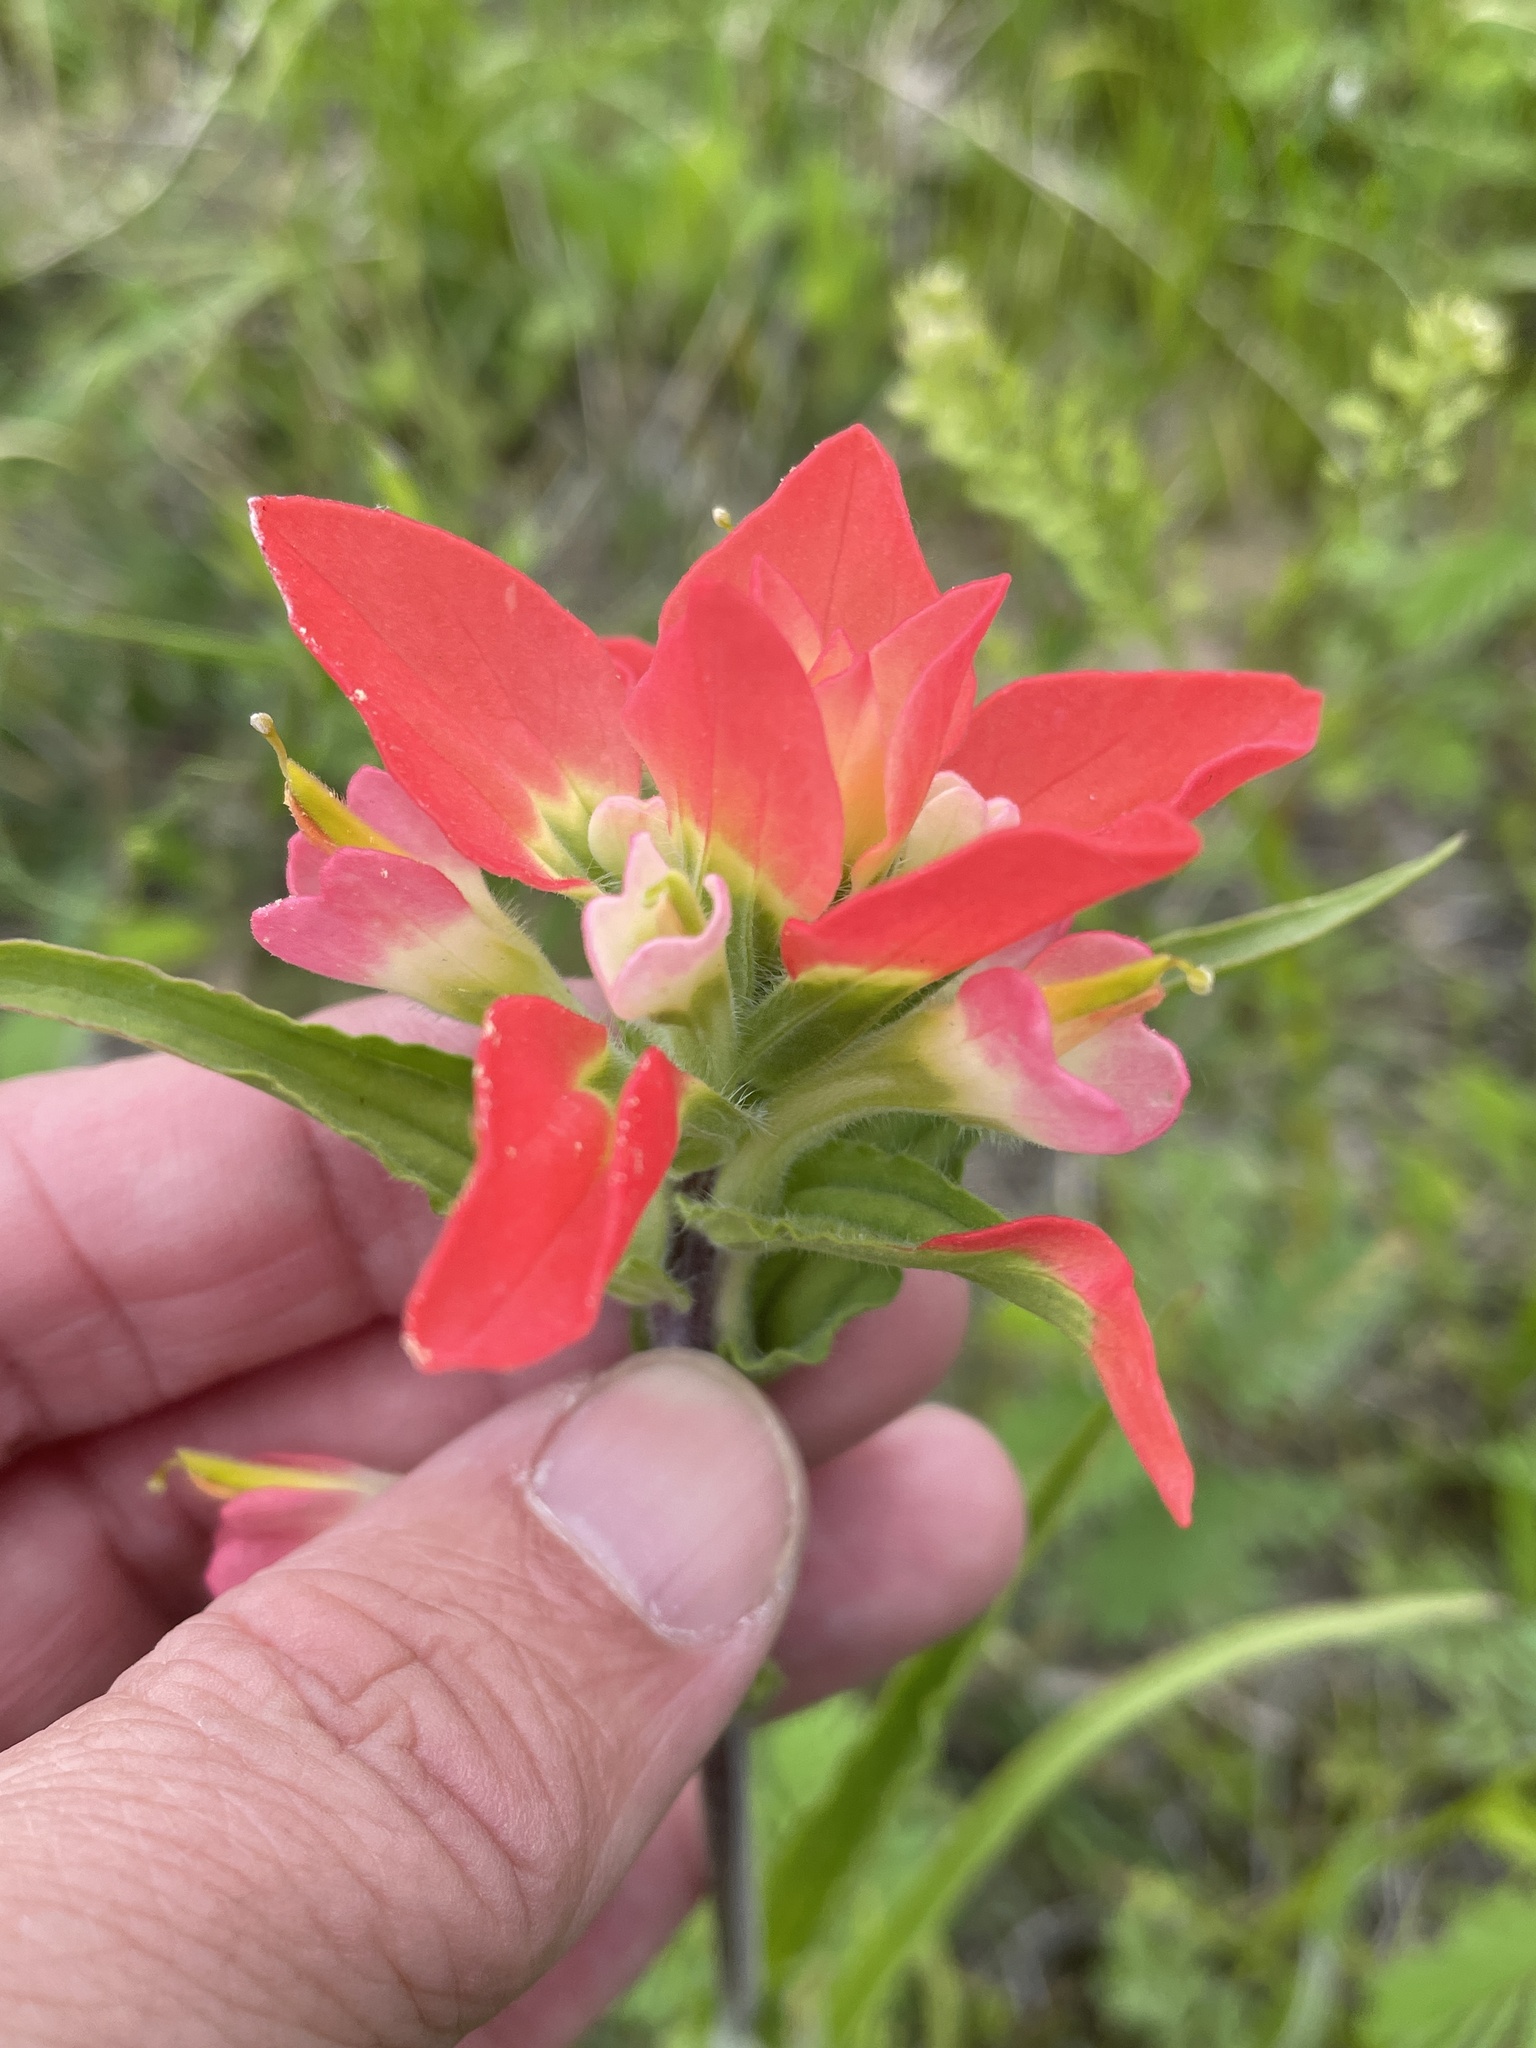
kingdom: Plantae
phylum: Tracheophyta
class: Magnoliopsida
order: Lamiales
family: Orobanchaceae
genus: Castilleja
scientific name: Castilleja indivisa
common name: Texas paintbrush
